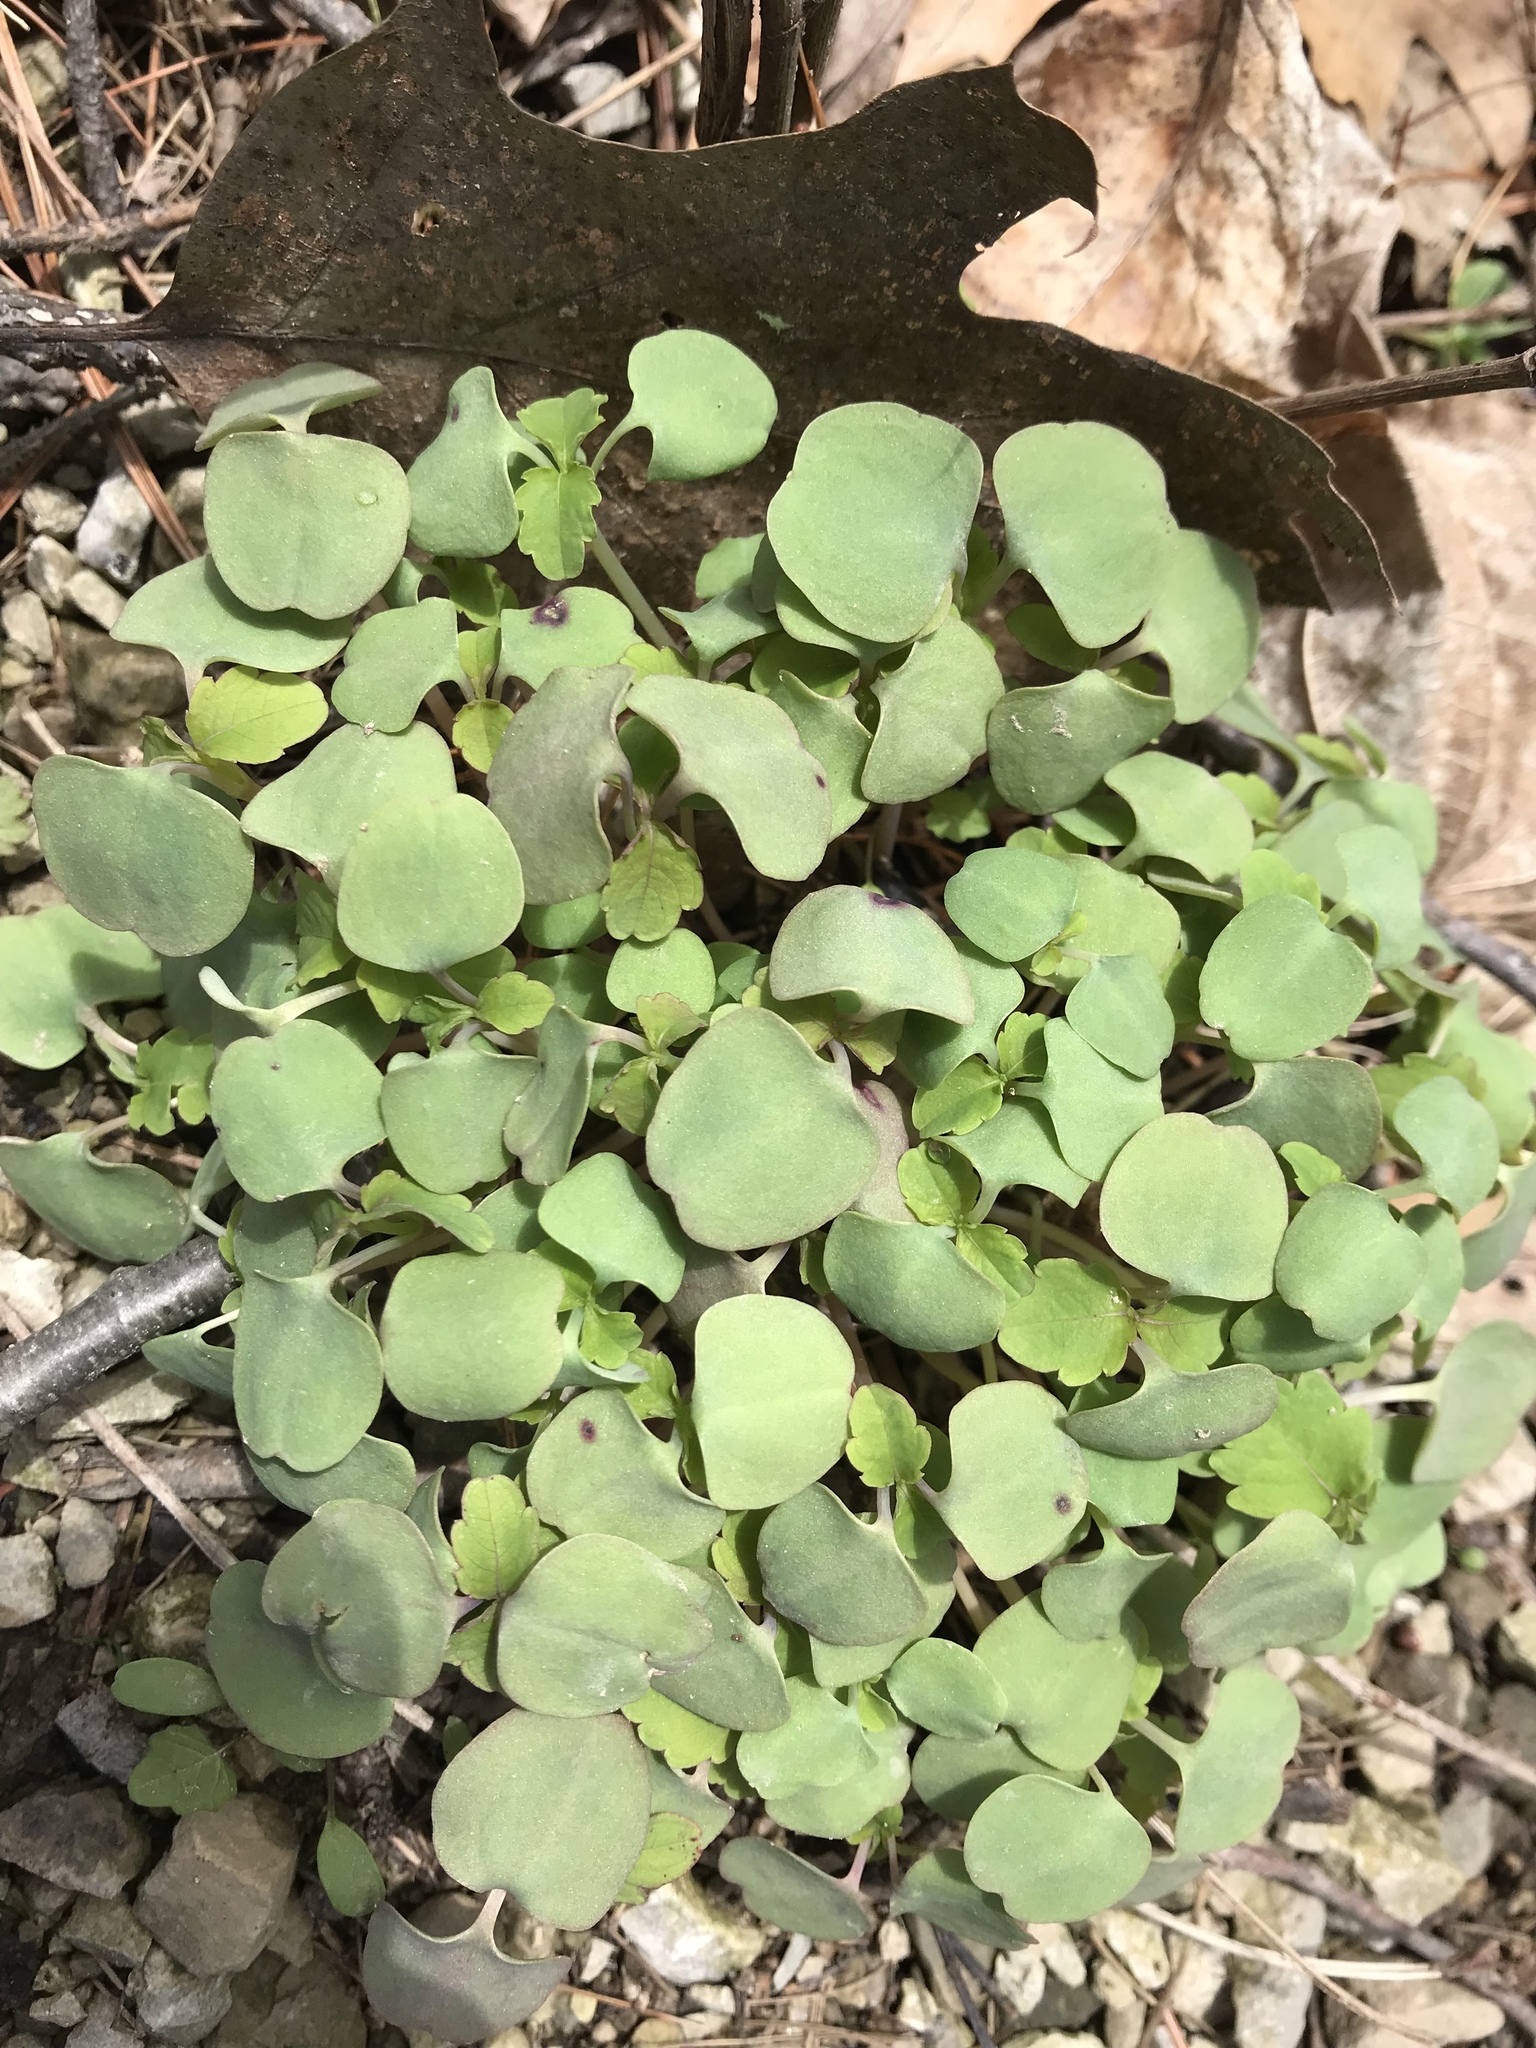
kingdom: Plantae
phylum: Tracheophyta
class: Magnoliopsida
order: Ericales
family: Balsaminaceae
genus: Impatiens
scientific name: Impatiens capensis
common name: Orange balsam
